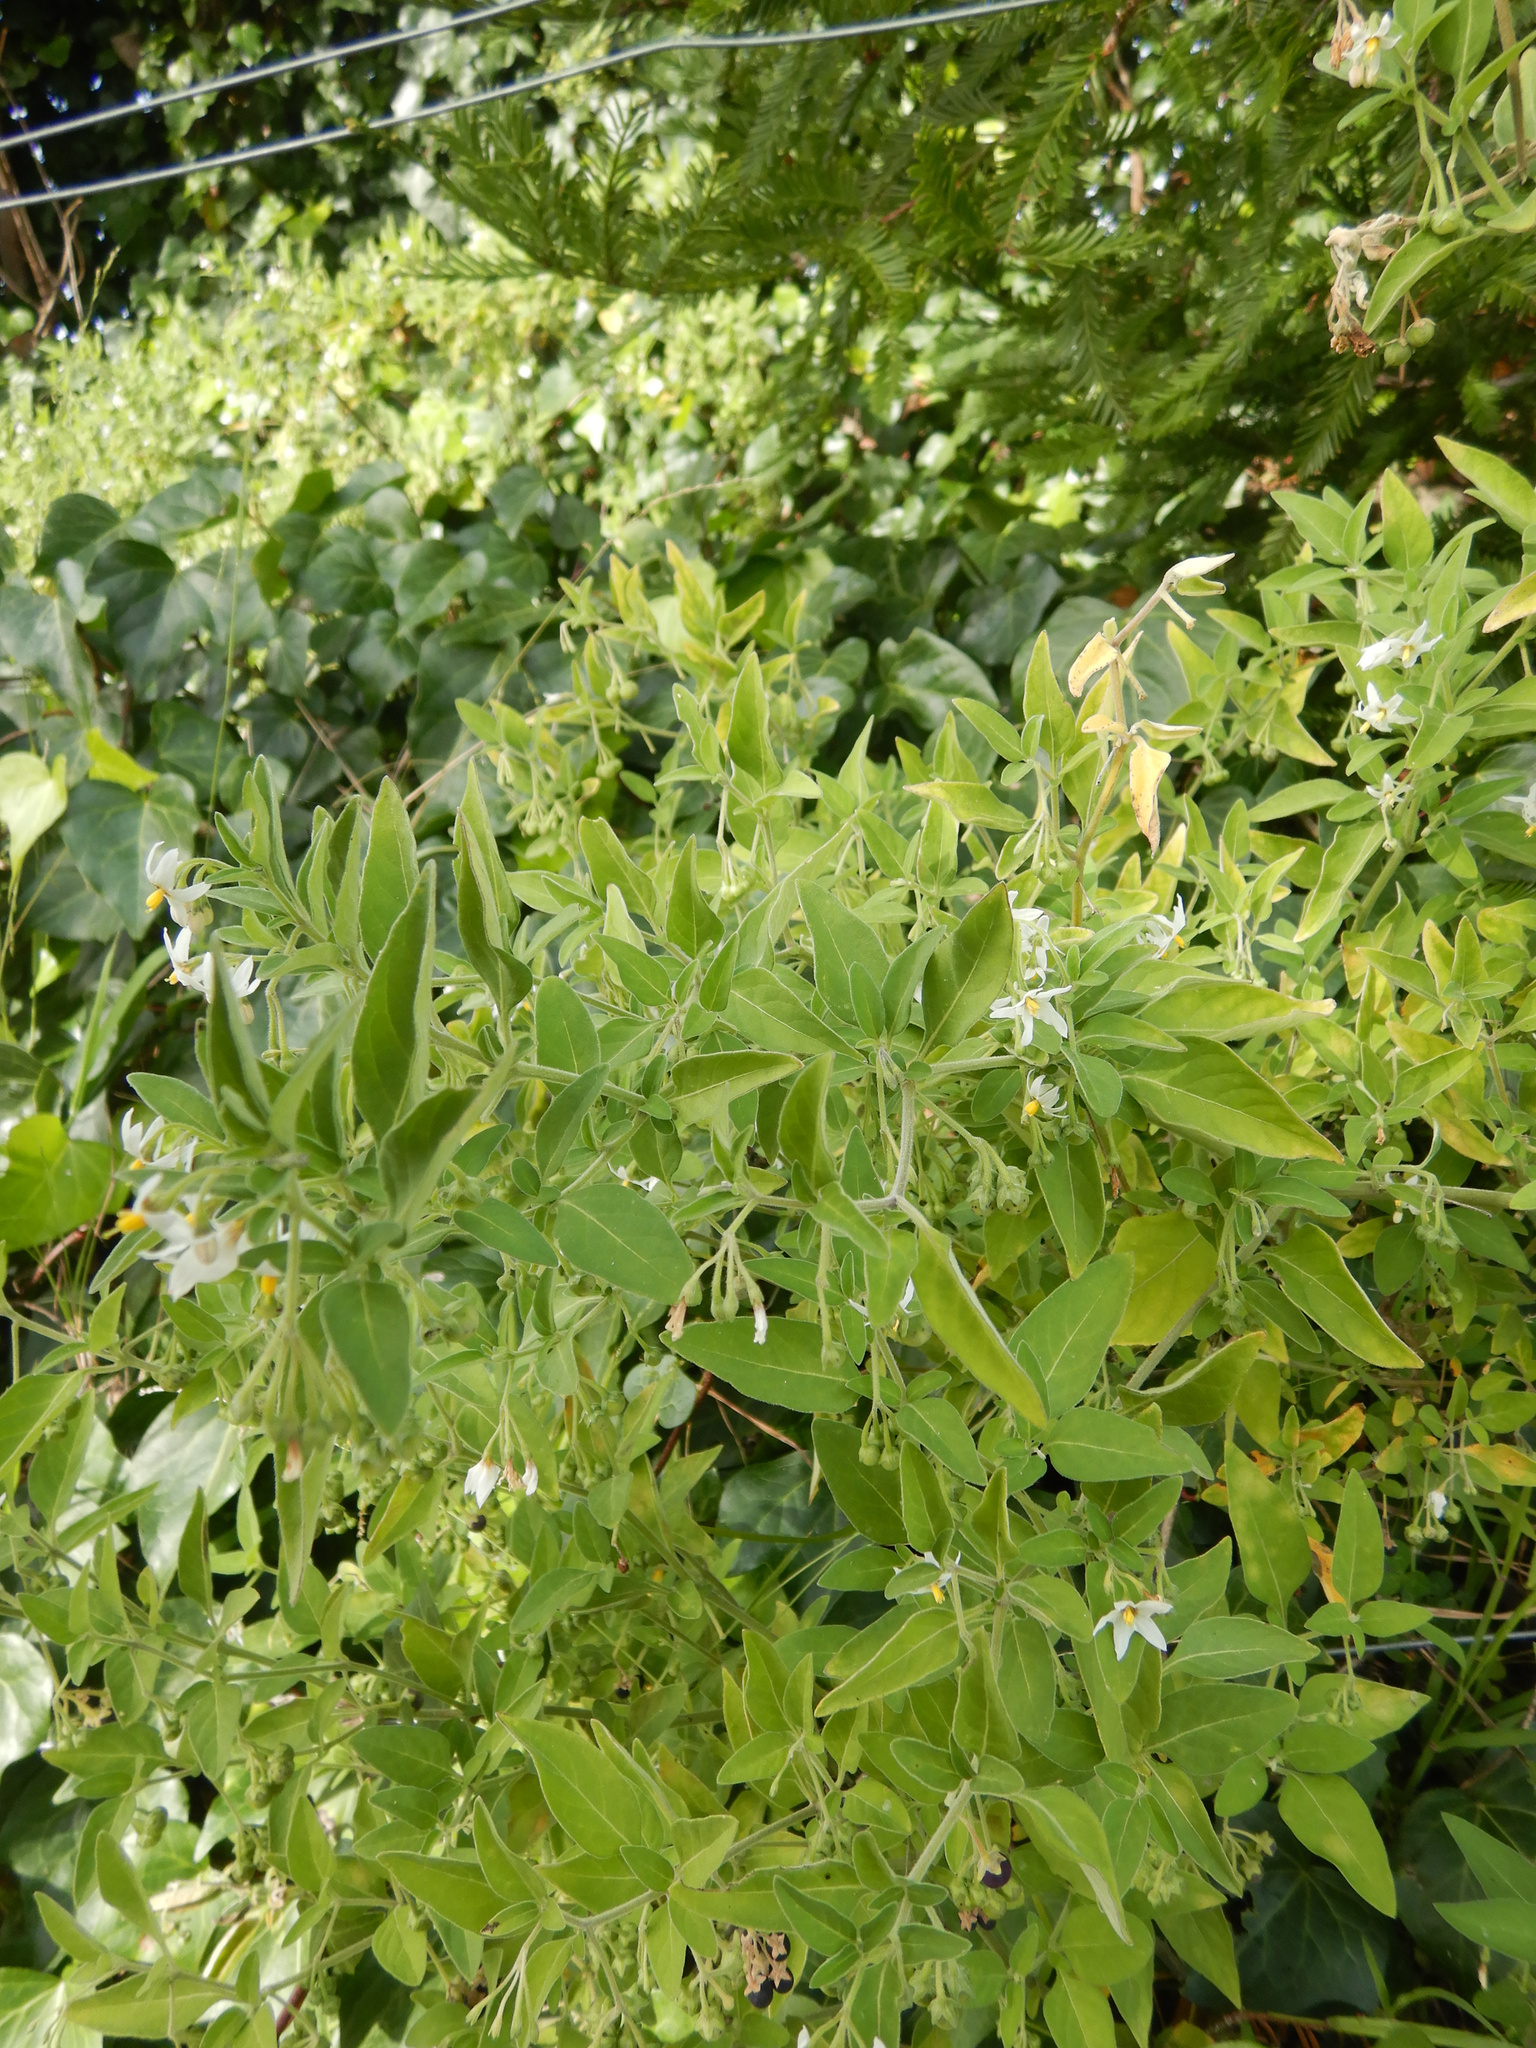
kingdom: Plantae
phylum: Tracheophyta
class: Magnoliopsida
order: Solanales
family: Solanaceae
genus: Solanum
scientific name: Solanum chenopodioides
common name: Tall nightshade
